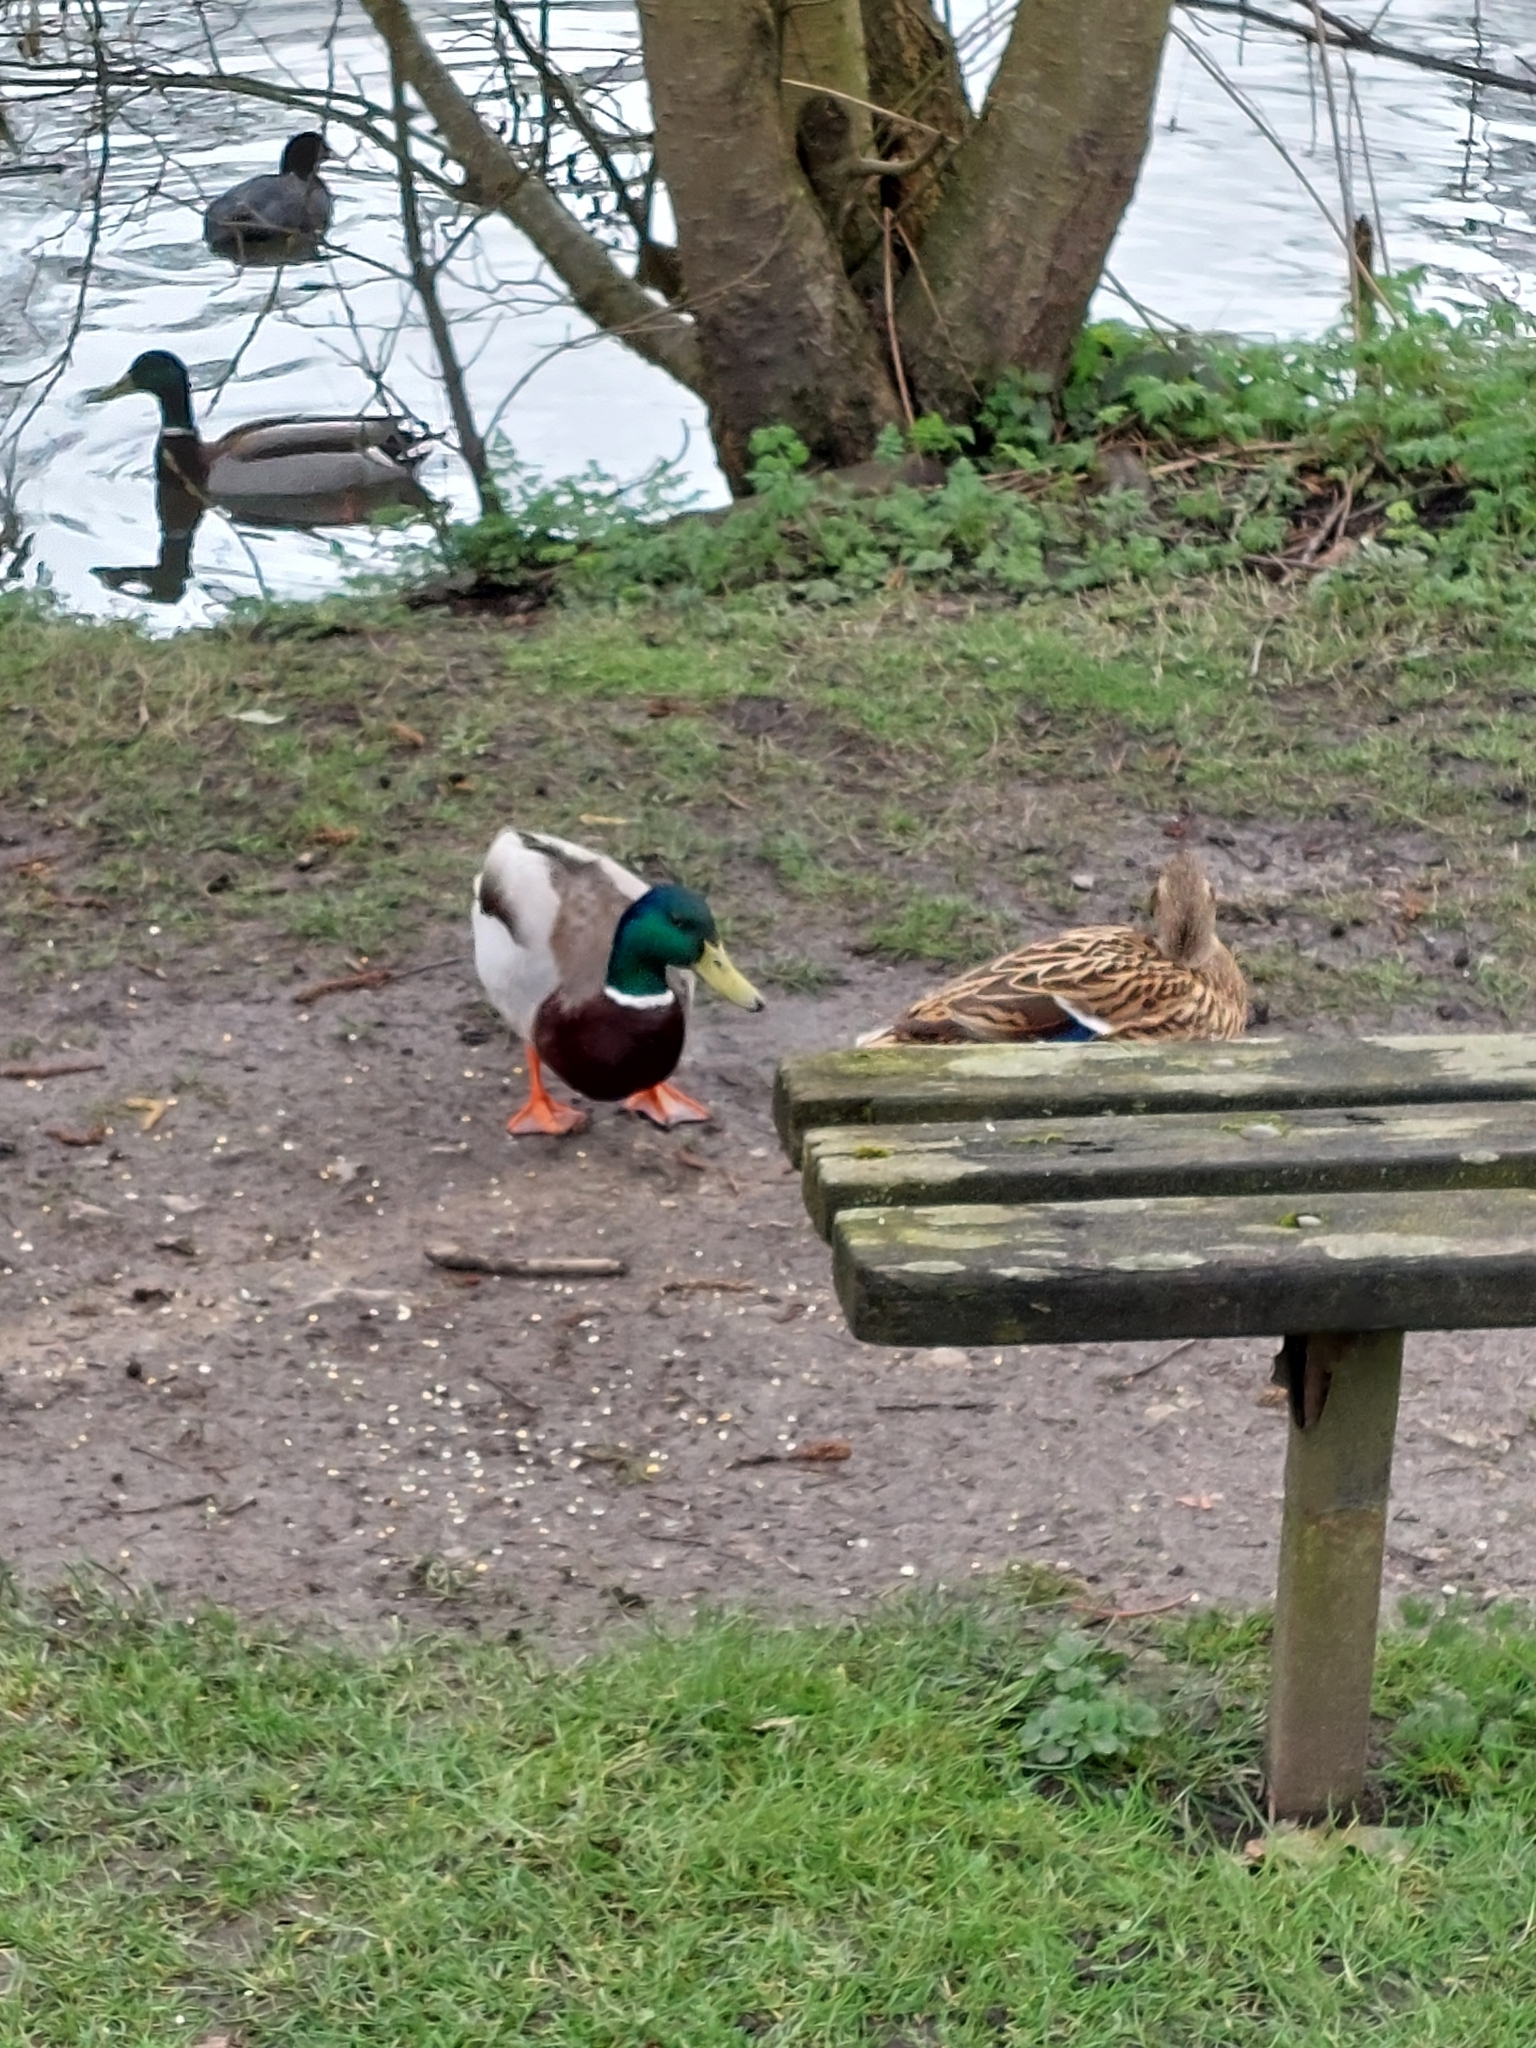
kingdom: Animalia
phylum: Chordata
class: Aves
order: Anseriformes
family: Anatidae
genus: Anas
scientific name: Anas platyrhynchos
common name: Mallard
